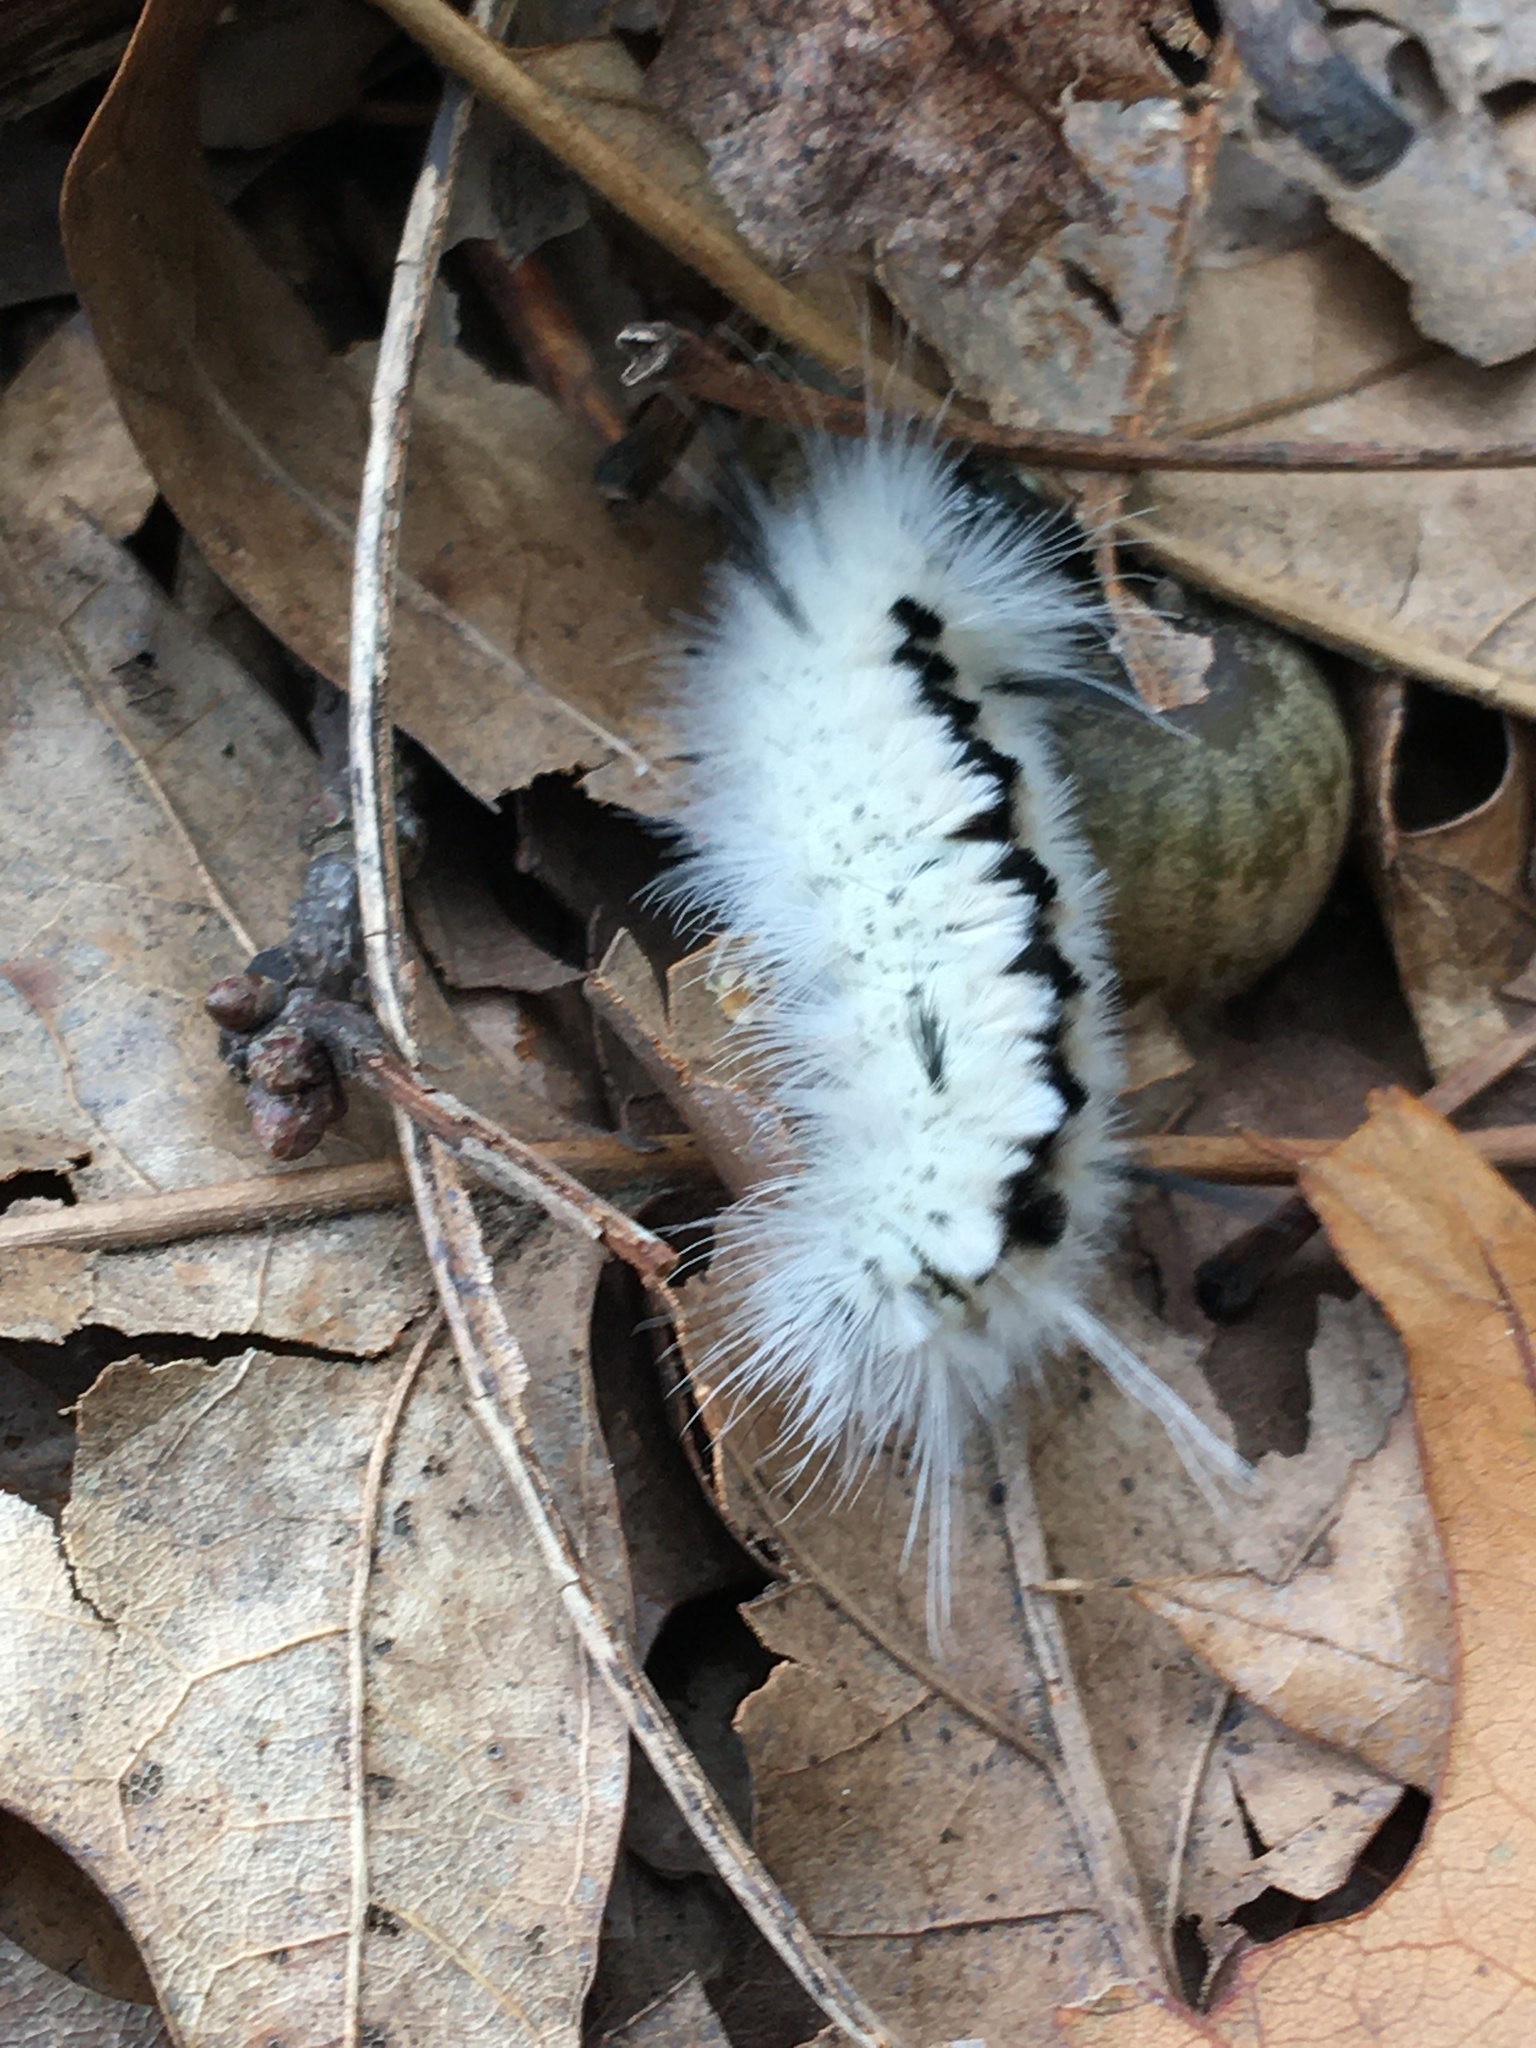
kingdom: Animalia
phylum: Arthropoda
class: Insecta
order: Lepidoptera
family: Erebidae
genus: Lophocampa
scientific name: Lophocampa caryae
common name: Hickory tussock moth
